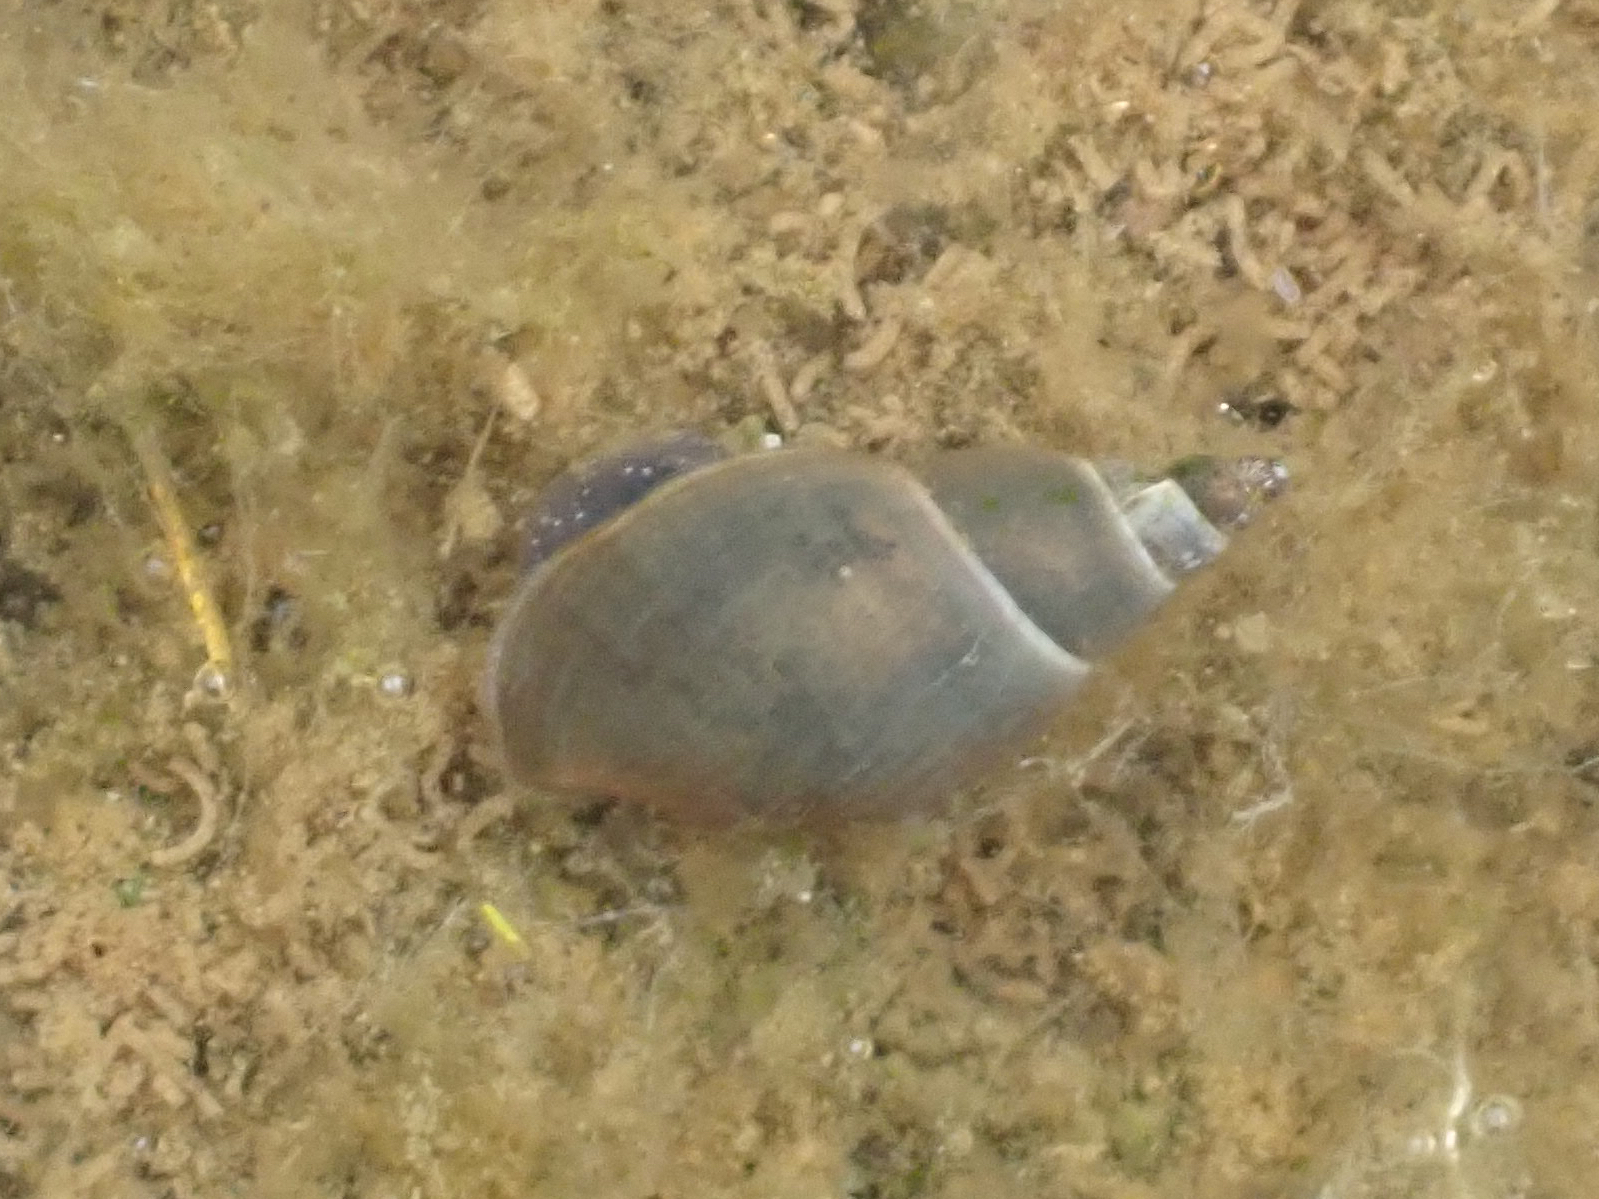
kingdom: Animalia
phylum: Mollusca
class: Gastropoda
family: Lymnaeidae
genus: Lymnaea
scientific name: Lymnaea stagnalis
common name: Great pond snail
